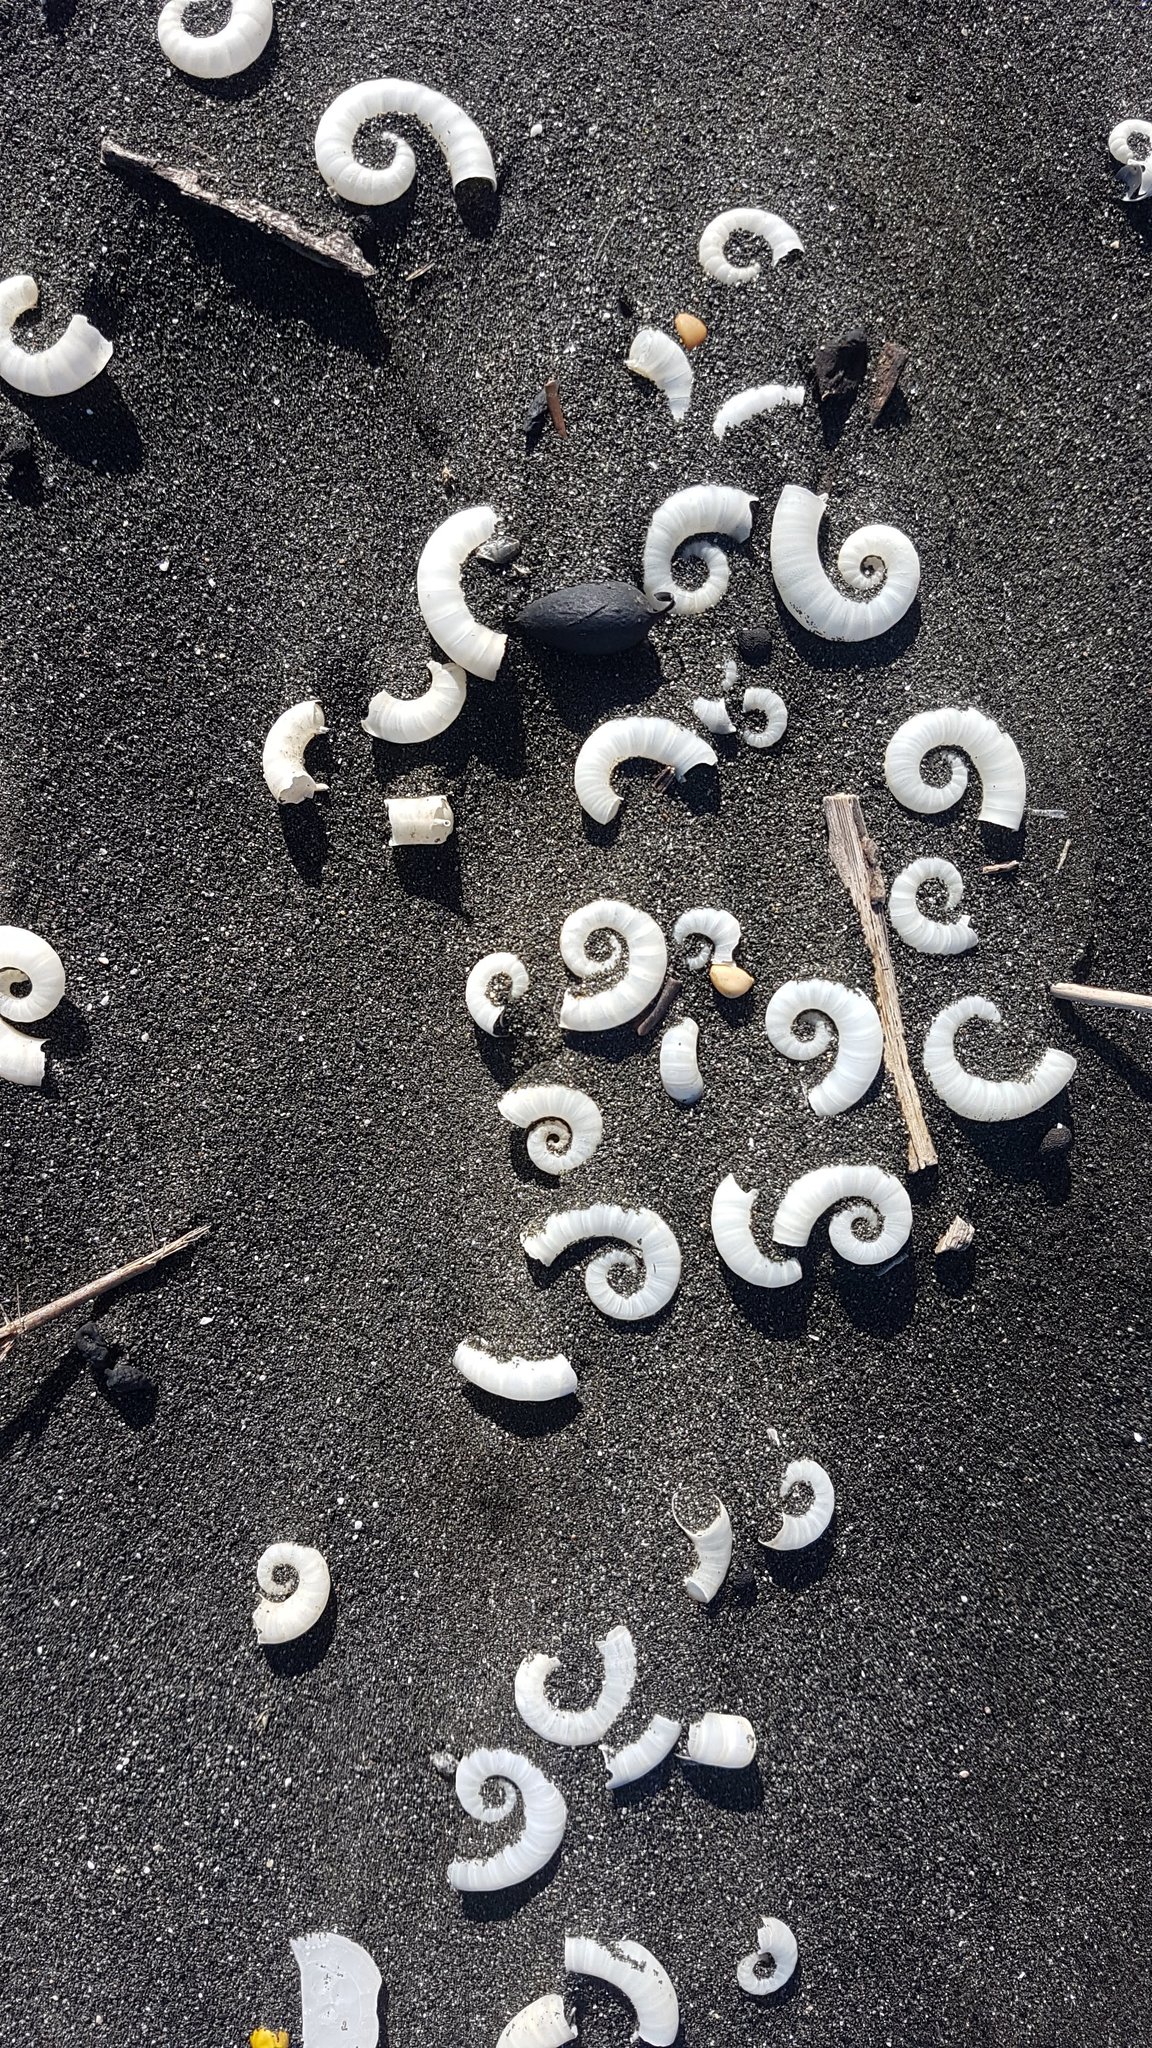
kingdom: Animalia
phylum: Mollusca
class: Cephalopoda
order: Spirulida
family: Spirulidae
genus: Spirula
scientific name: Spirula spirula
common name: Ram's horn squid
